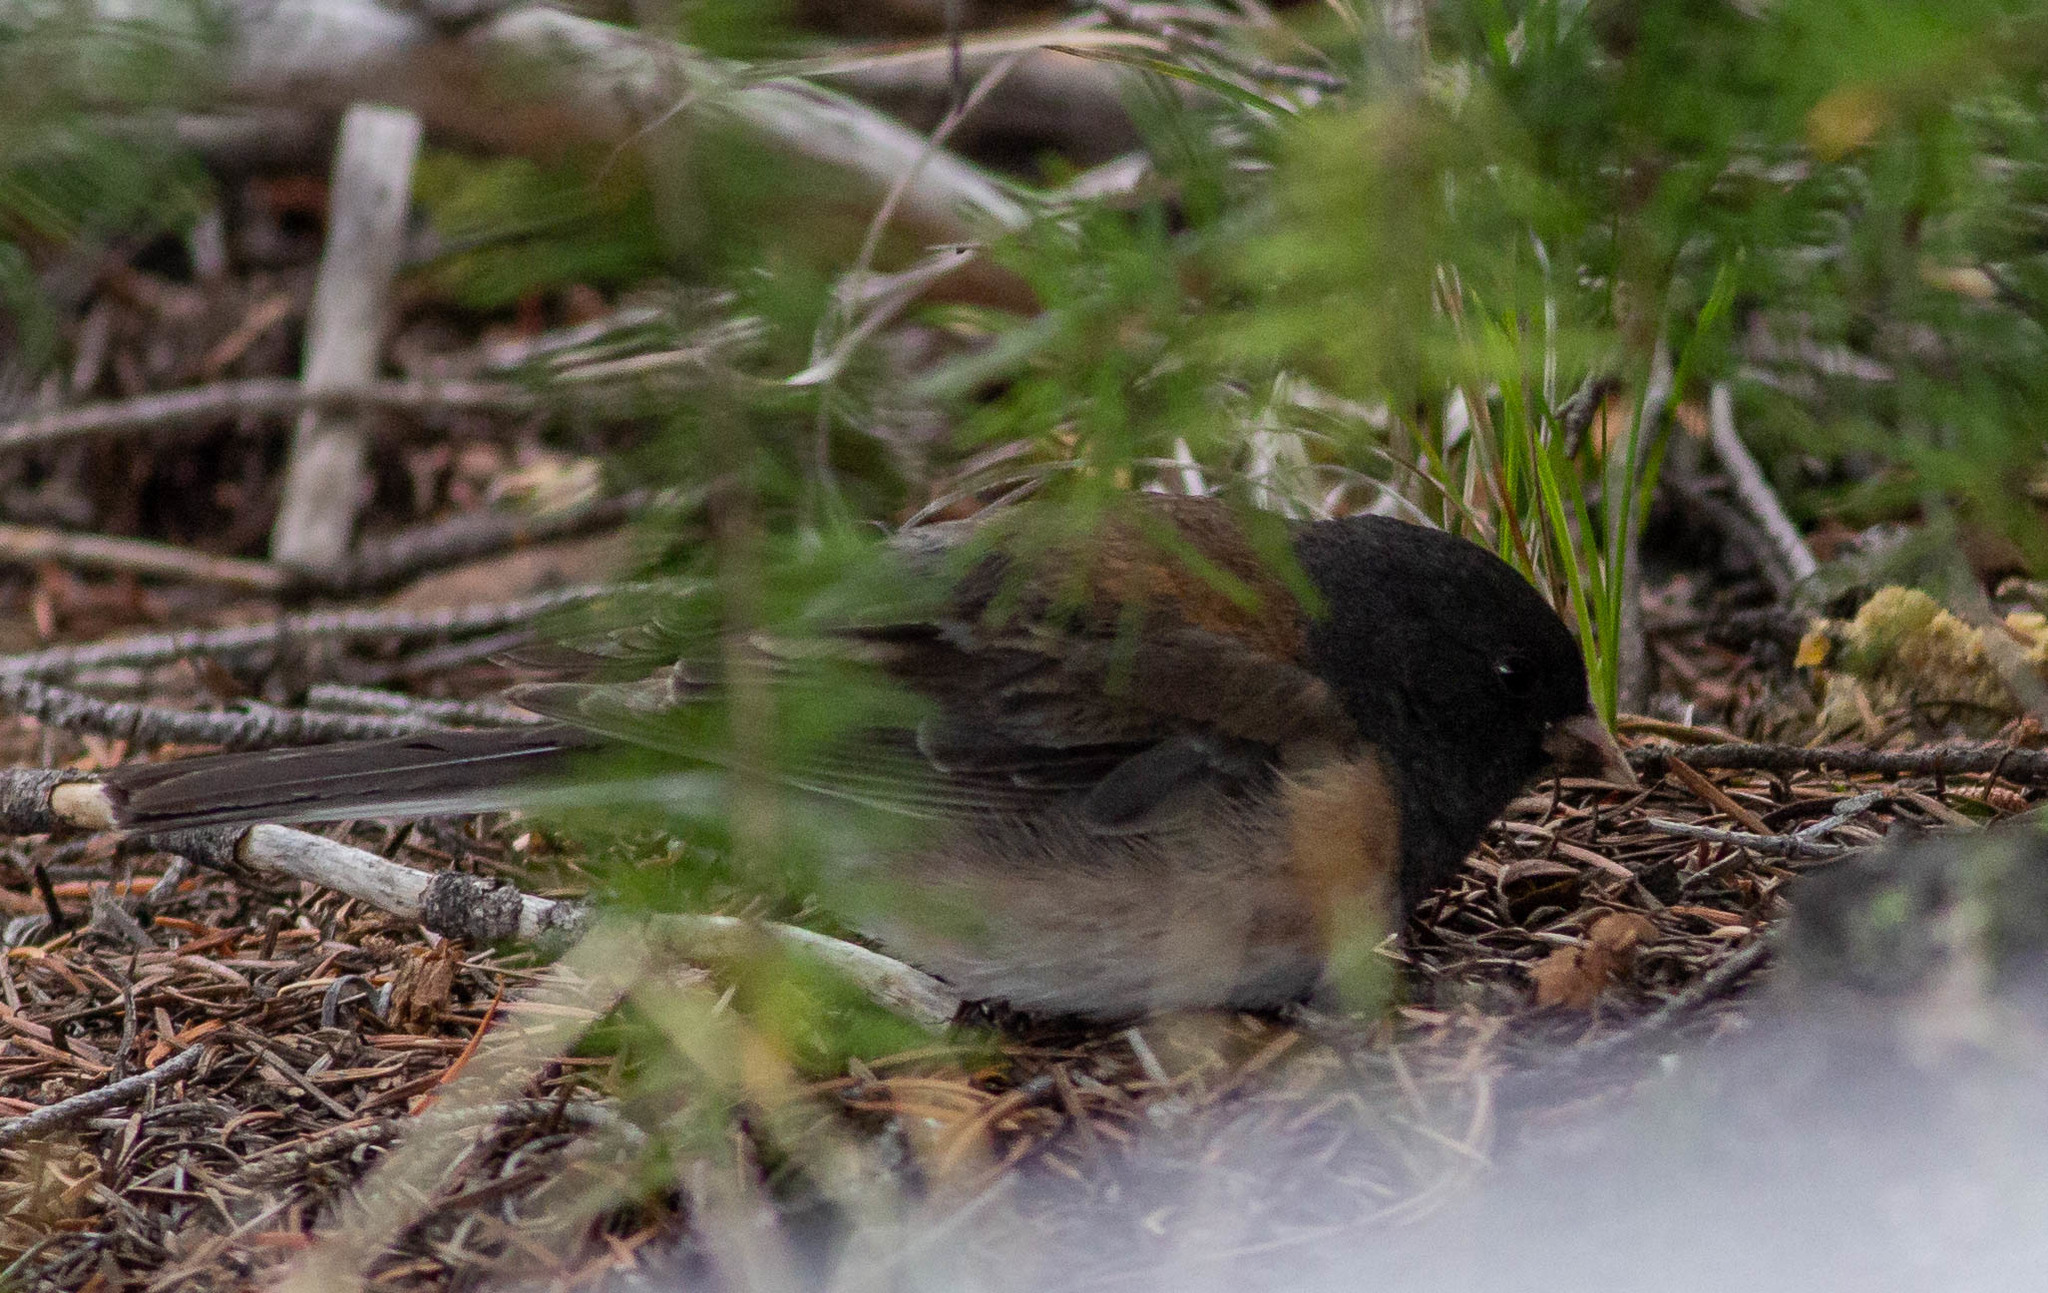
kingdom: Animalia
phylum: Chordata
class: Aves
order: Passeriformes
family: Passerellidae
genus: Junco
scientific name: Junco hyemalis
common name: Dark-eyed junco
